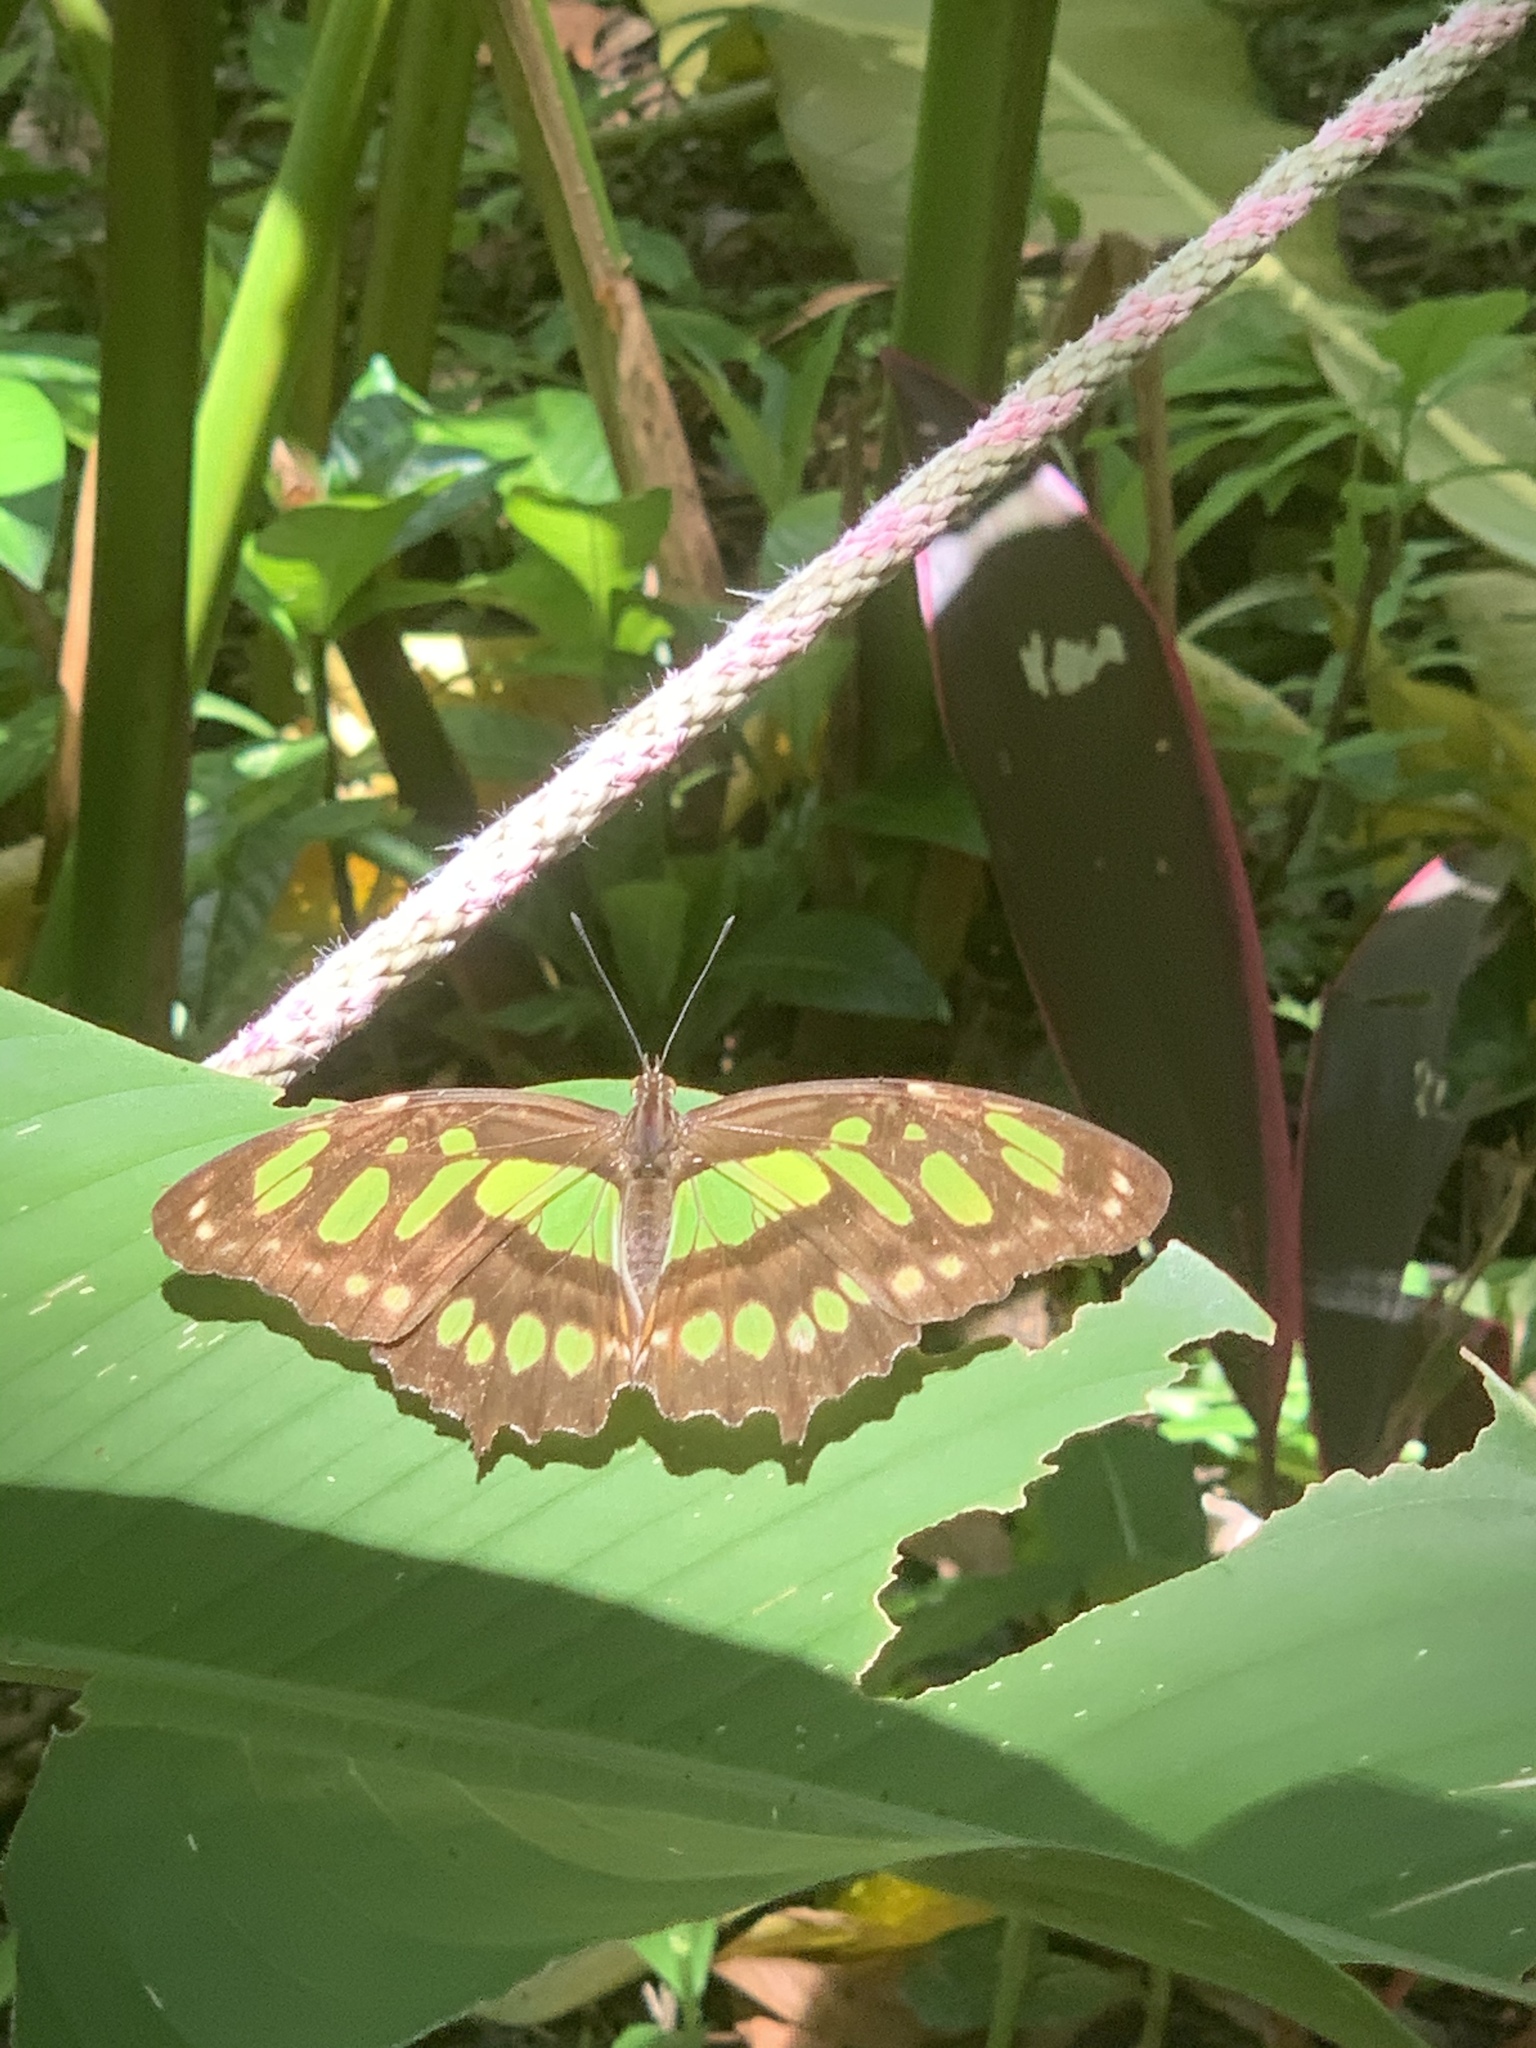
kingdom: Animalia
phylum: Arthropoda
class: Insecta
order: Lepidoptera
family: Nymphalidae
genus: Siproeta
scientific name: Siproeta stelenes
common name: Malachite
